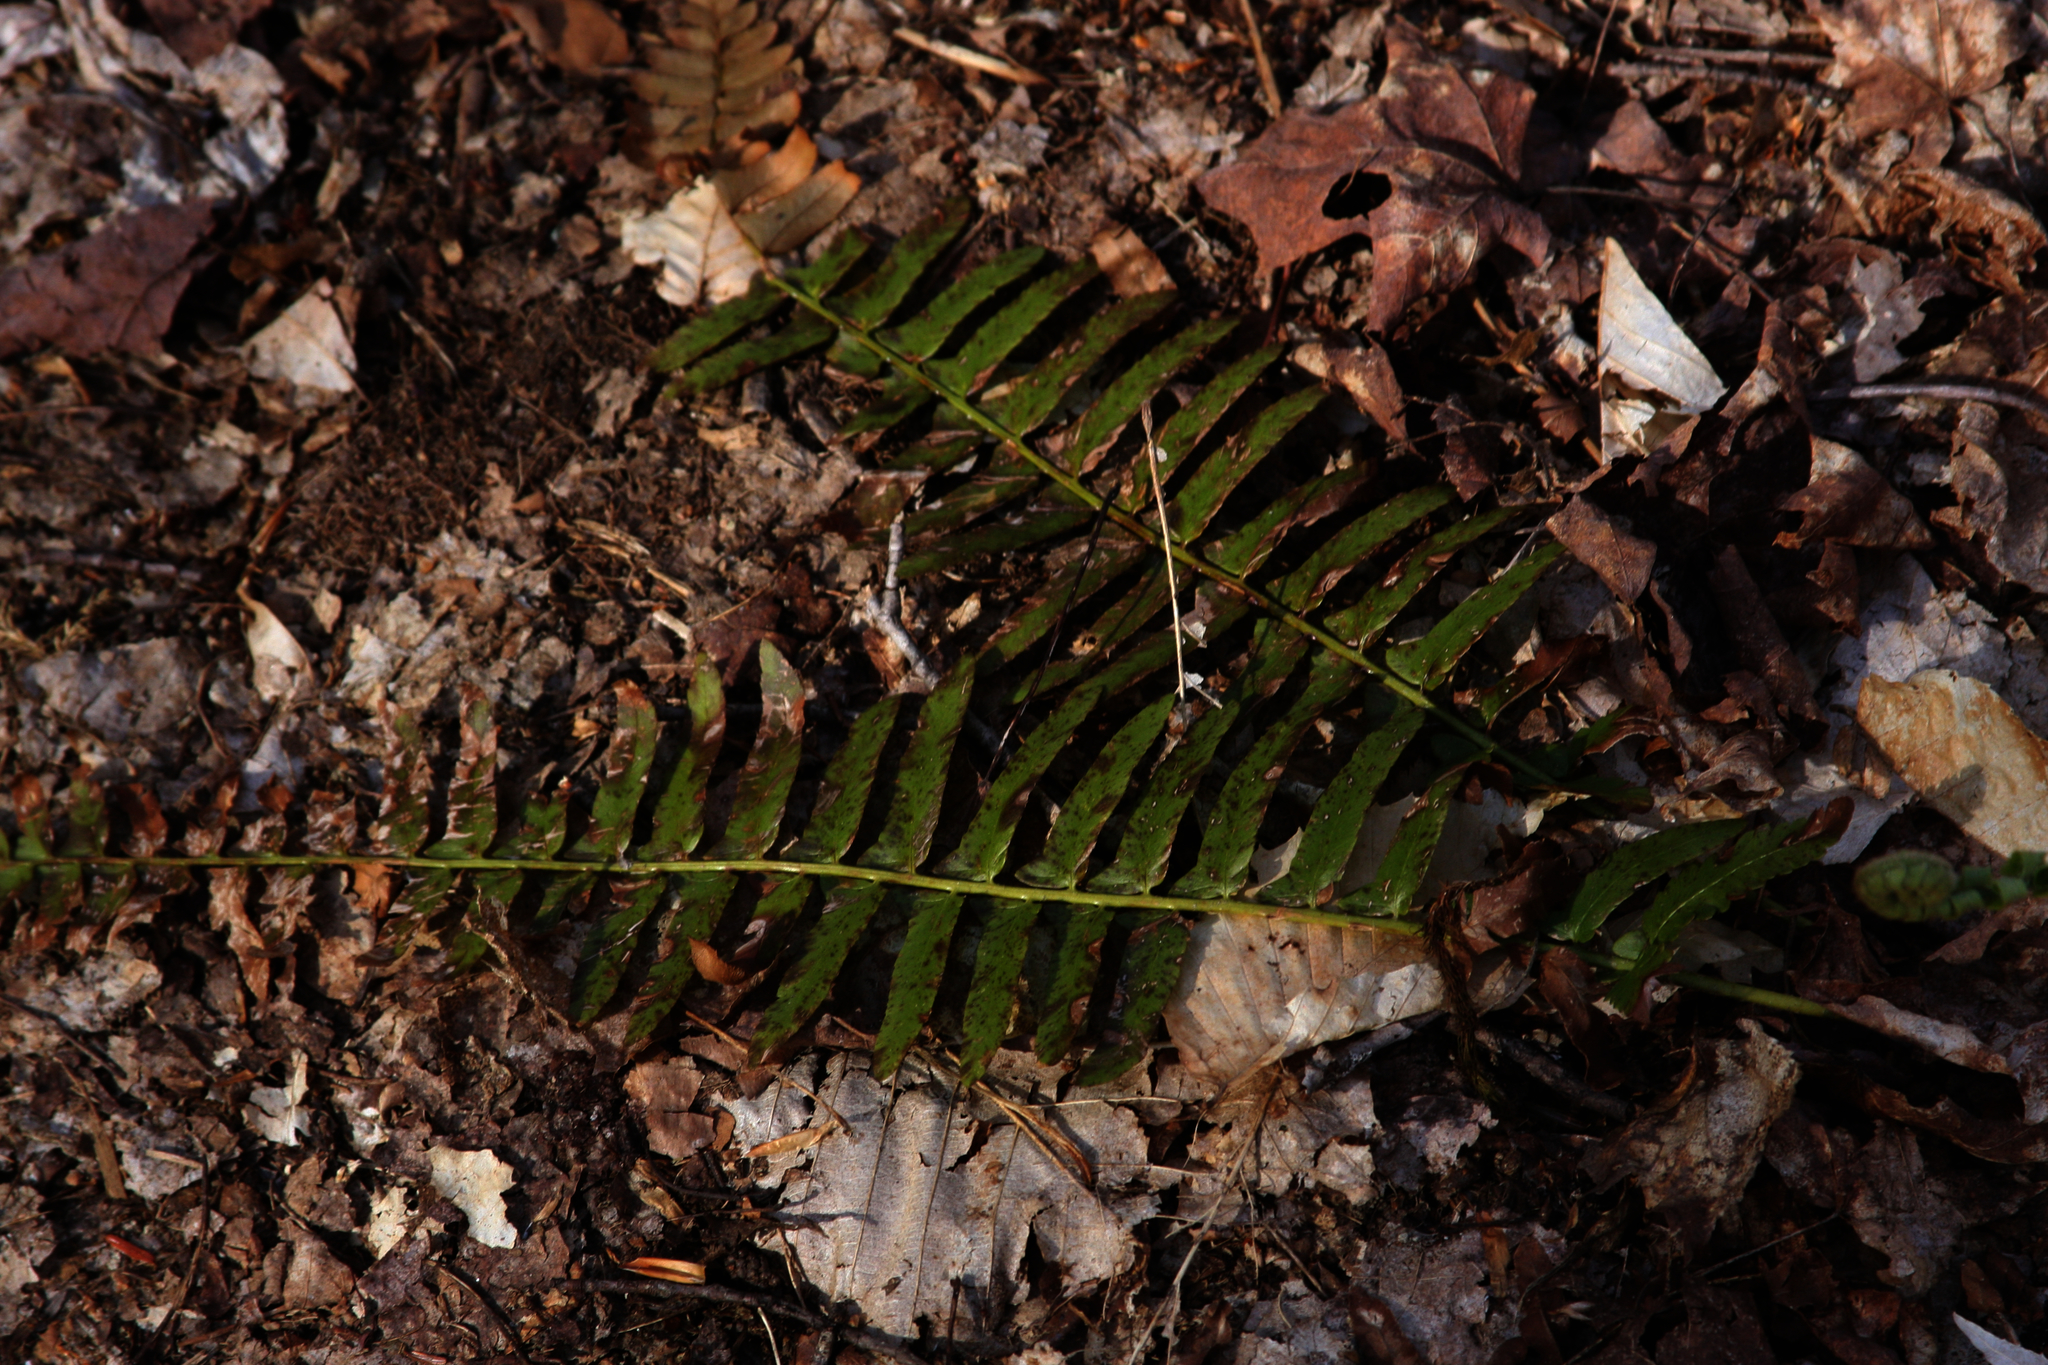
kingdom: Plantae
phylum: Tracheophyta
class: Polypodiopsida
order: Polypodiales
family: Dryopteridaceae
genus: Polystichum
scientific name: Polystichum acrostichoides
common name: Christmas fern
